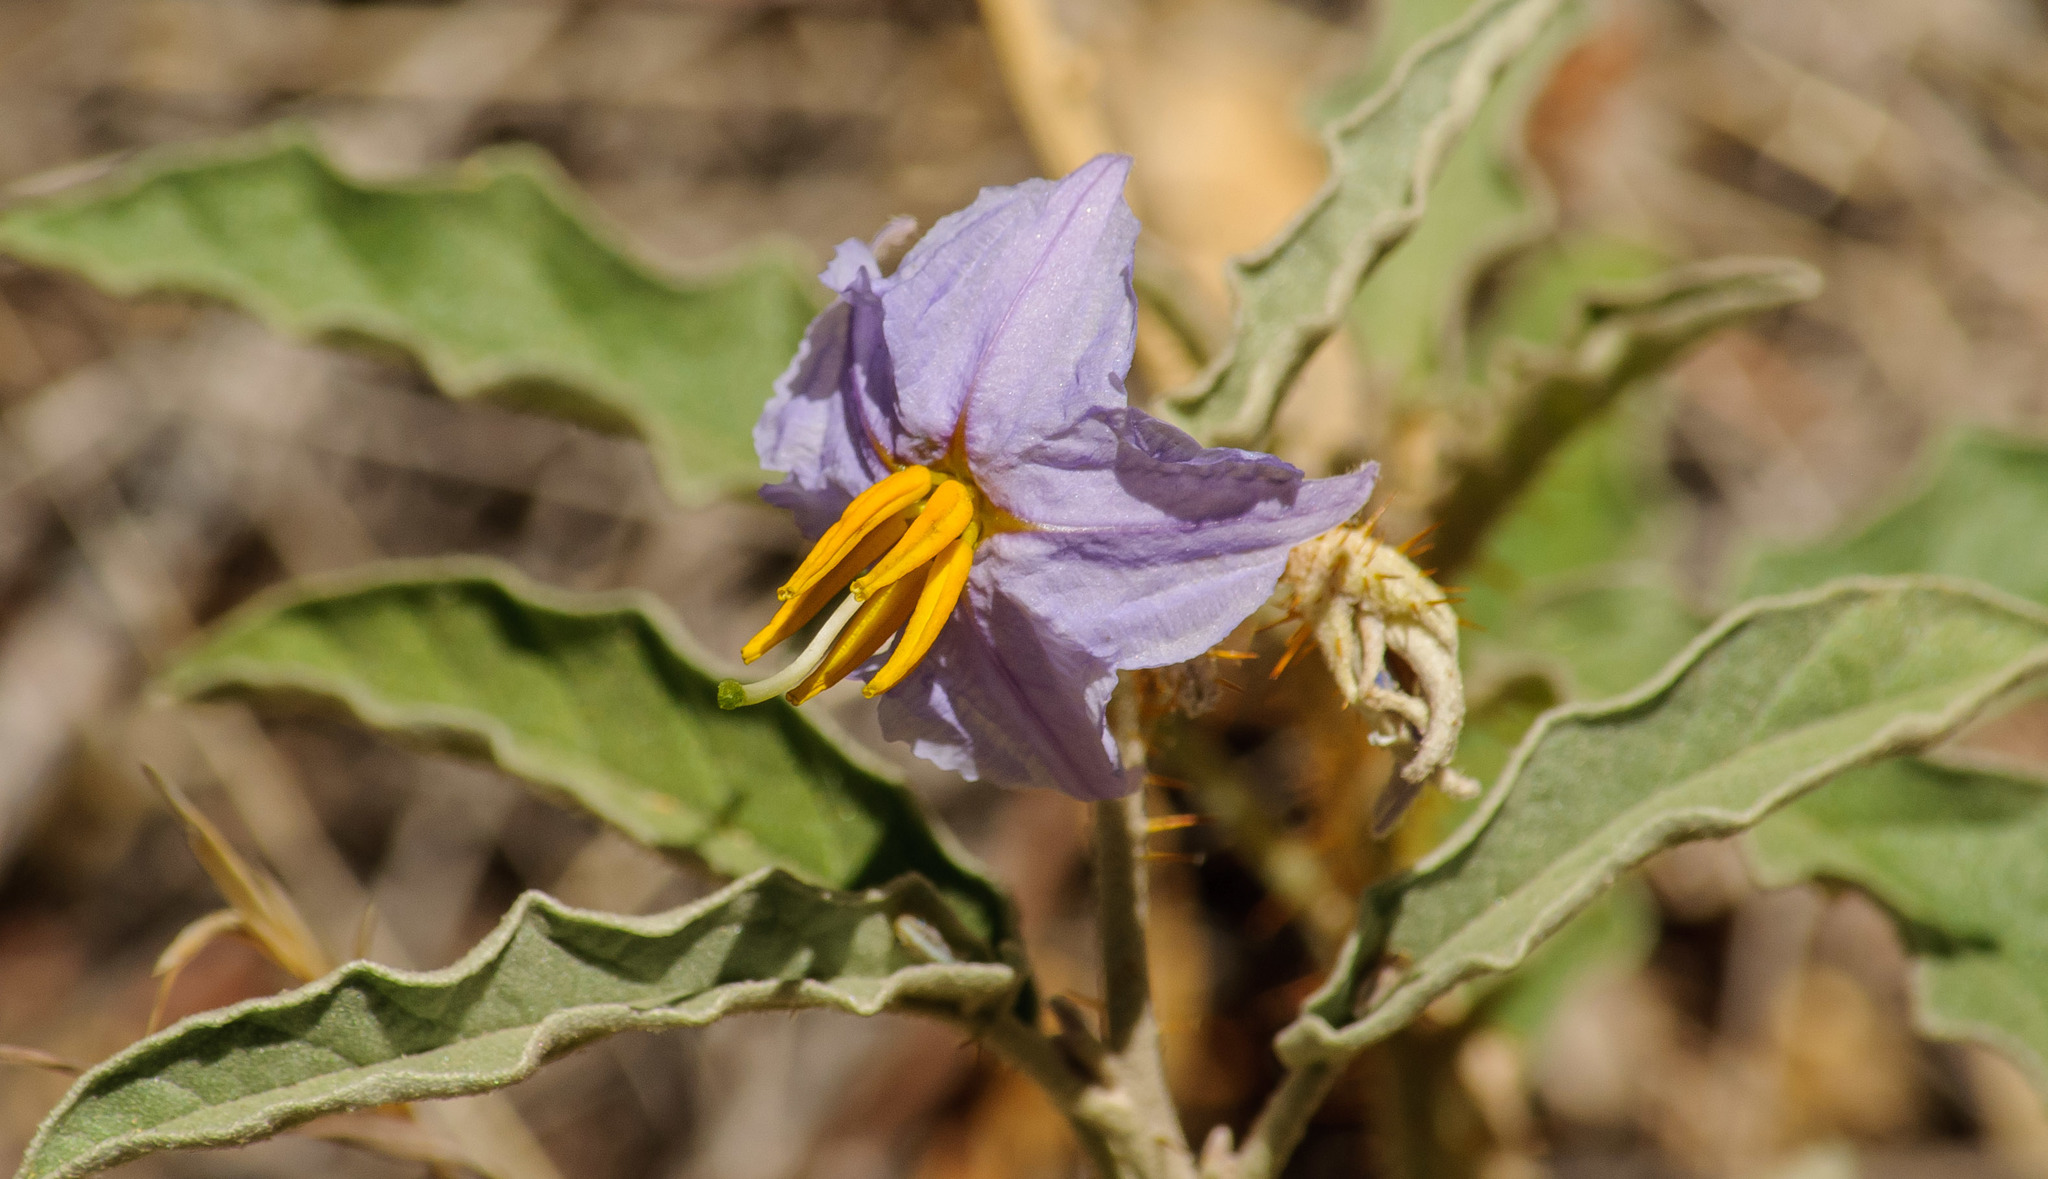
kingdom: Plantae
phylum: Tracheophyta
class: Magnoliopsida
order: Solanales
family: Solanaceae
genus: Solanum
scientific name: Solanum elaeagnifolium
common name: Silverleaf nightshade
